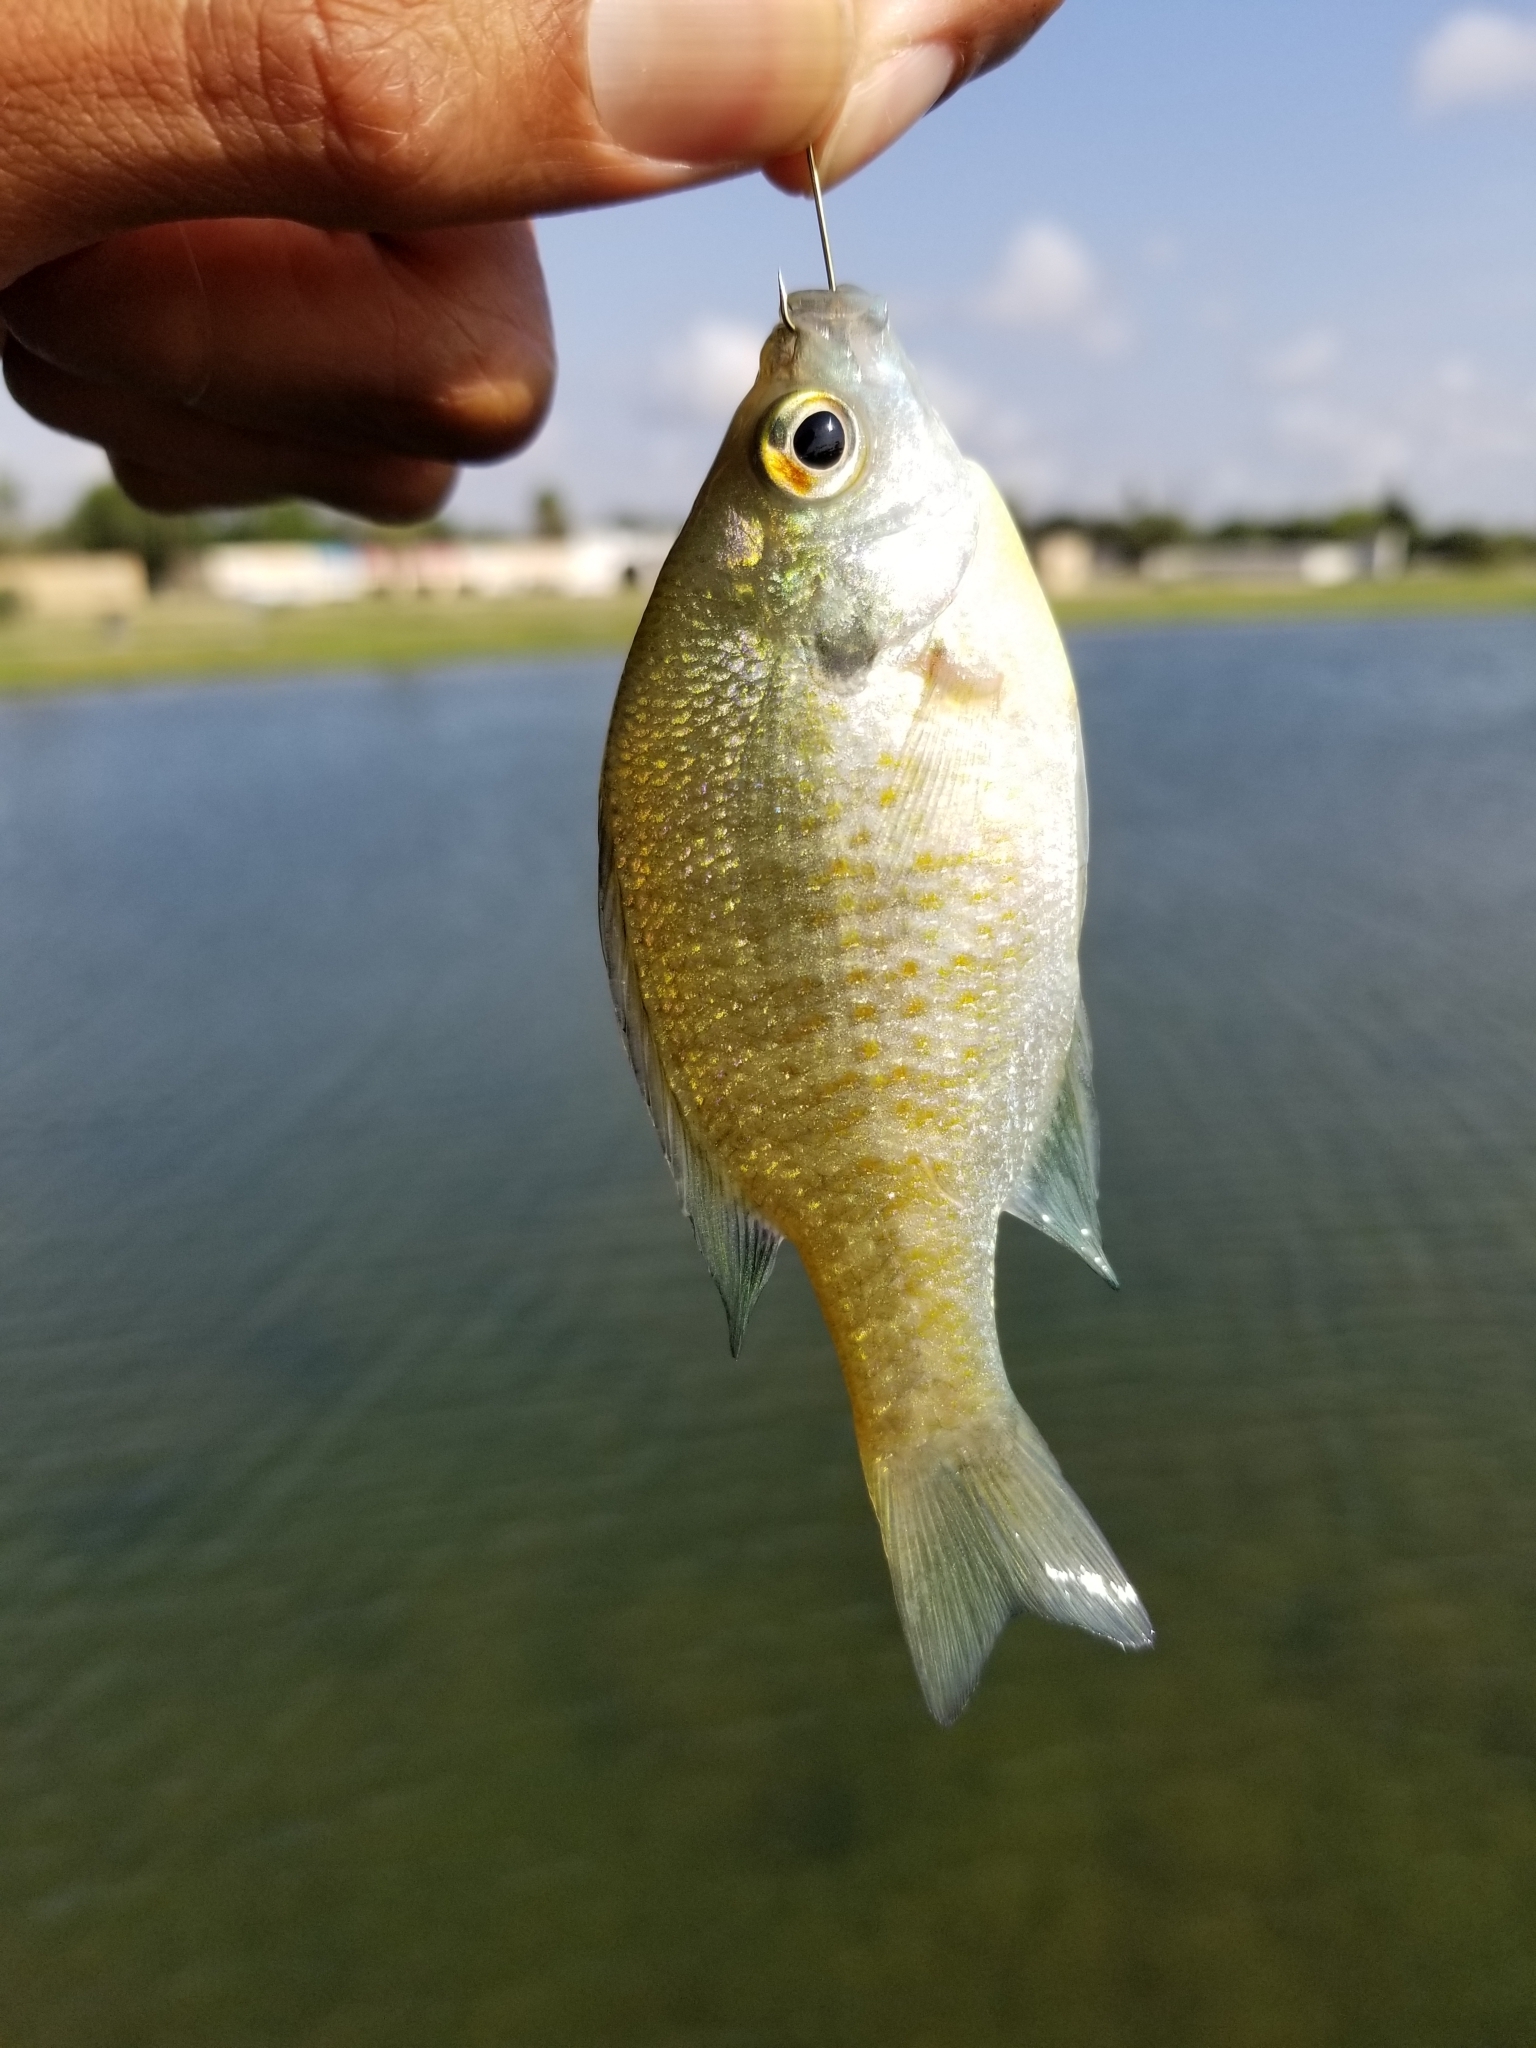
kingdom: Animalia
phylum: Chordata
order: Perciformes
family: Centrarchidae
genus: Lepomis
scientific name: Lepomis macrochirus
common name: Bluegill
